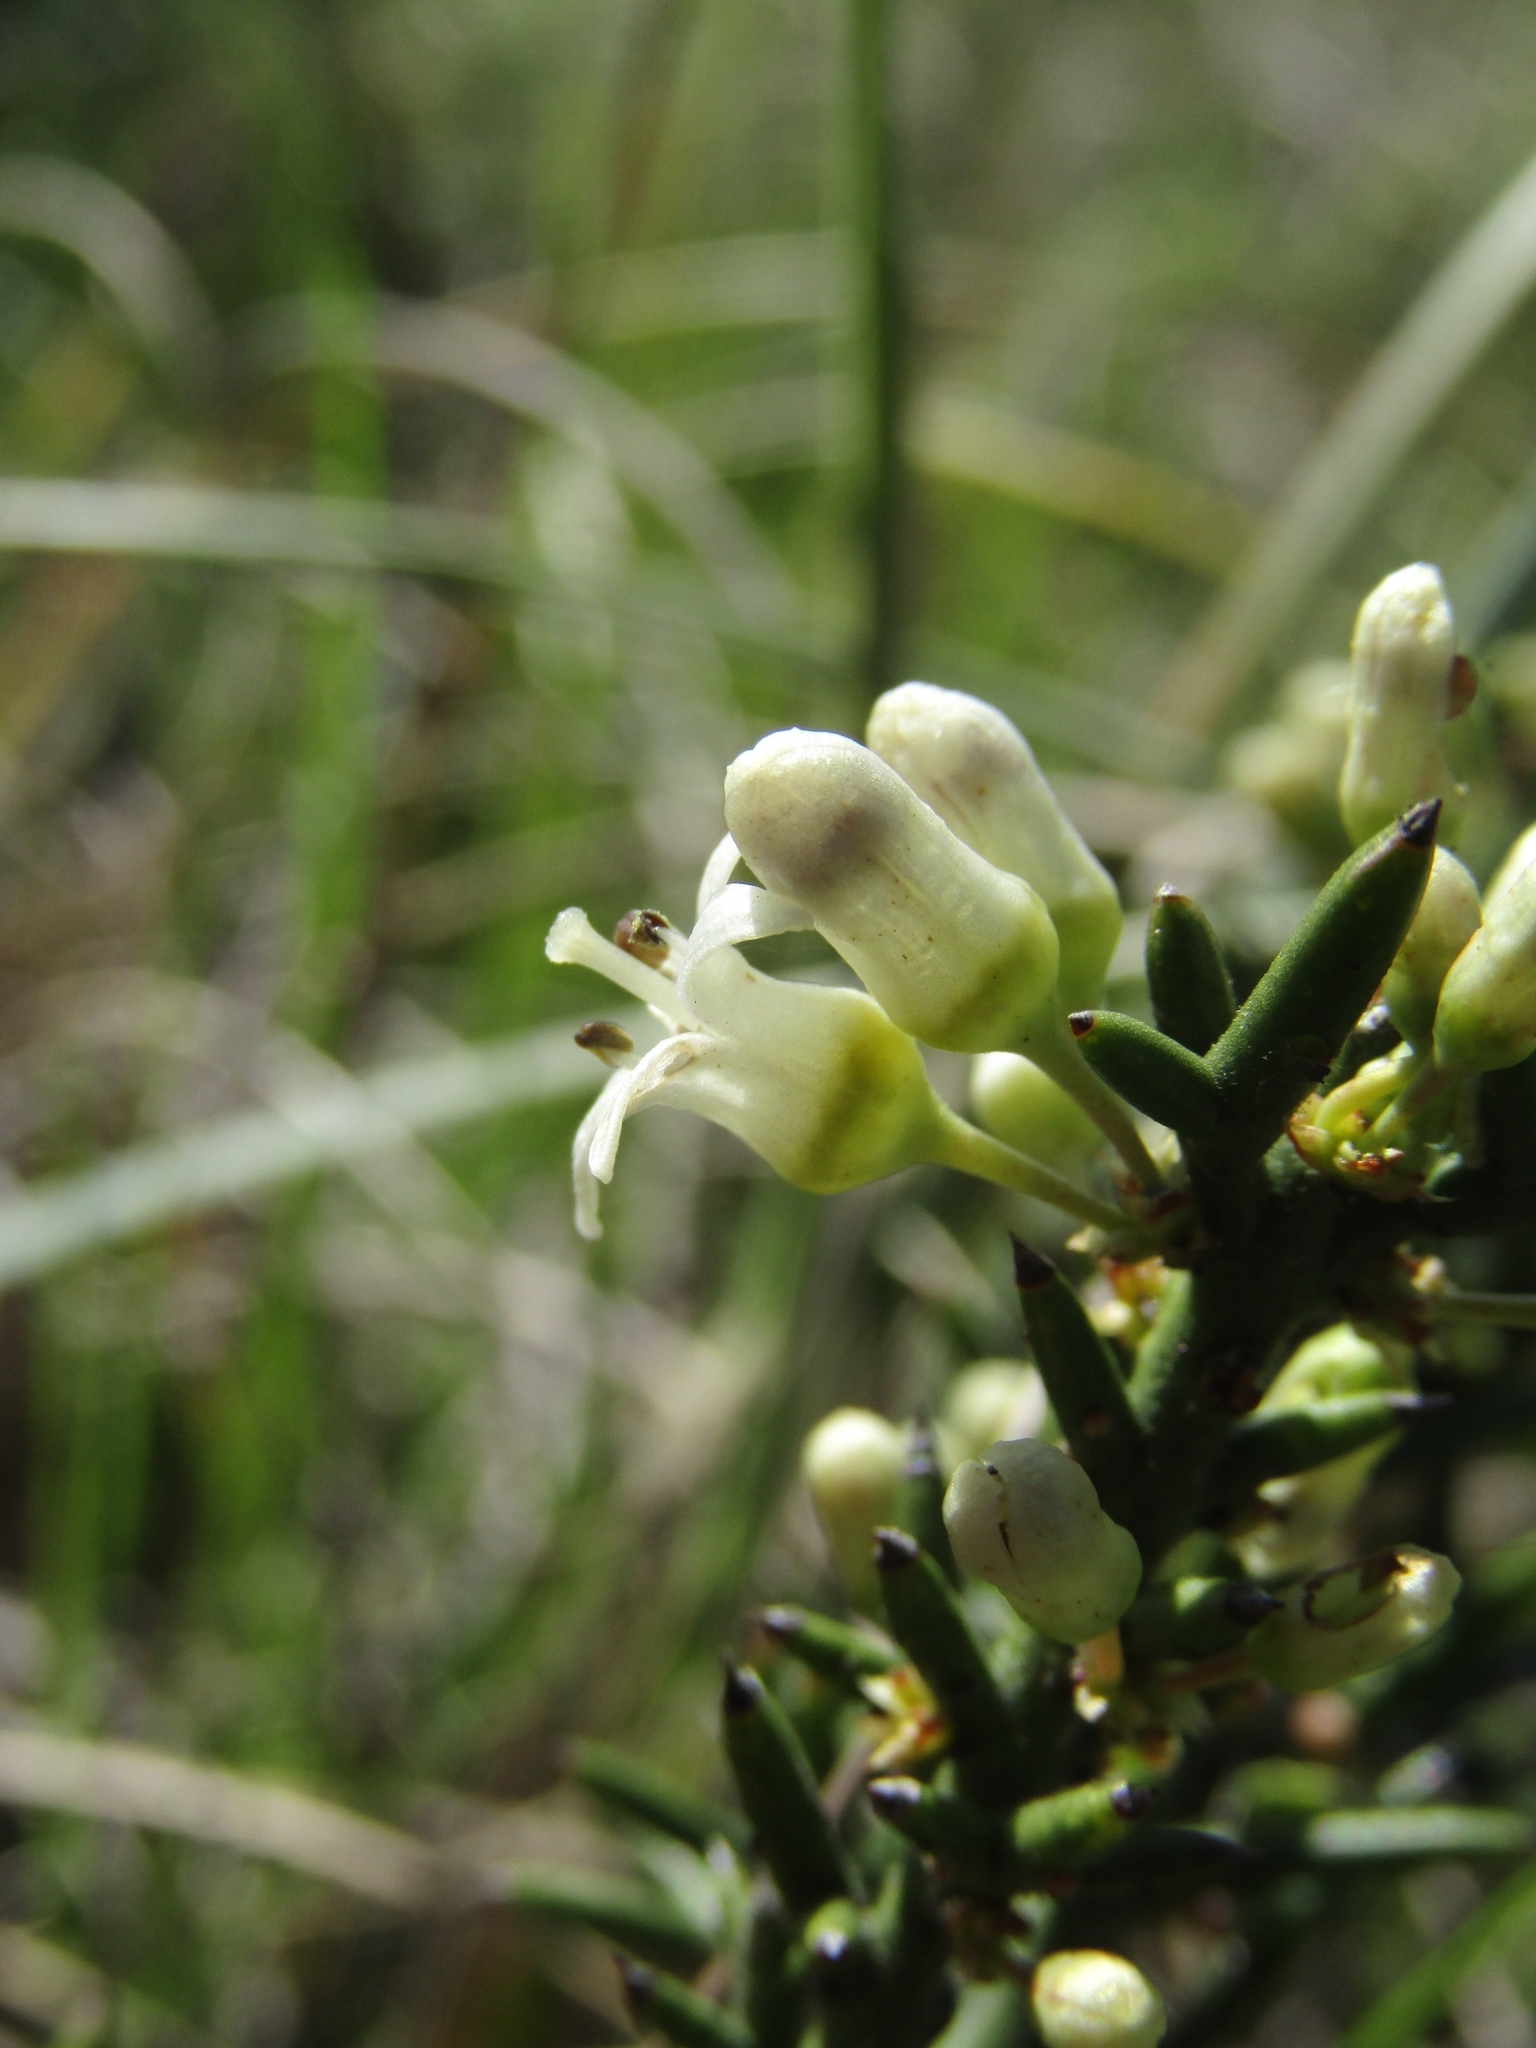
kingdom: Plantae
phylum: Tracheophyta
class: Magnoliopsida
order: Rosales
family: Rhamnaceae
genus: Colletia
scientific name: Colletia hystrix
